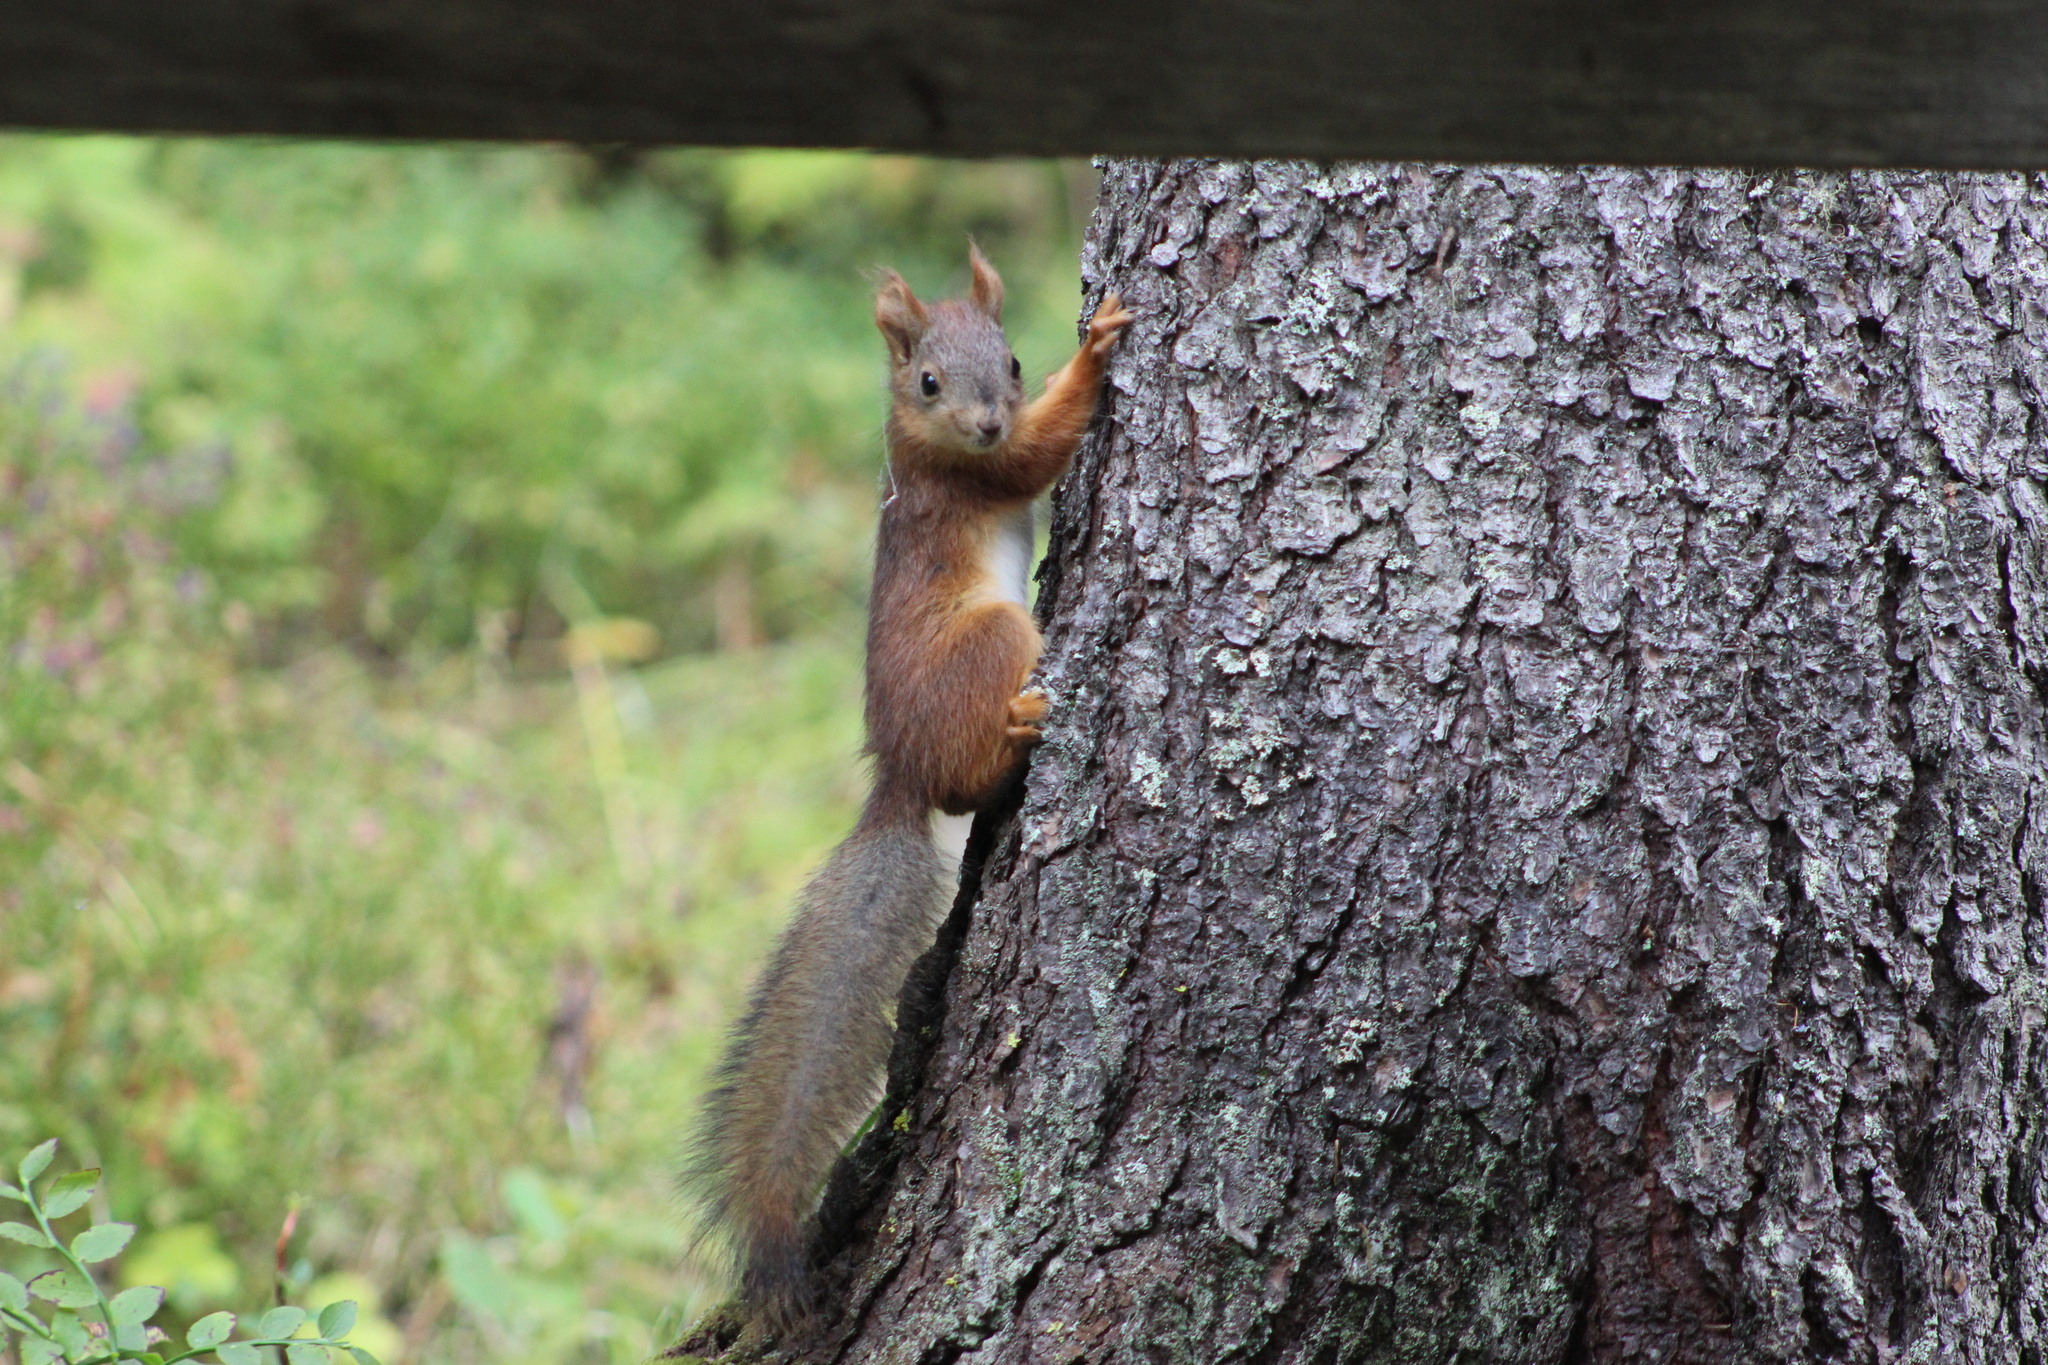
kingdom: Animalia
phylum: Chordata
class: Mammalia
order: Rodentia
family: Sciuridae
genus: Sciurus
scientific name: Sciurus vulgaris
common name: Eurasian red squirrel
